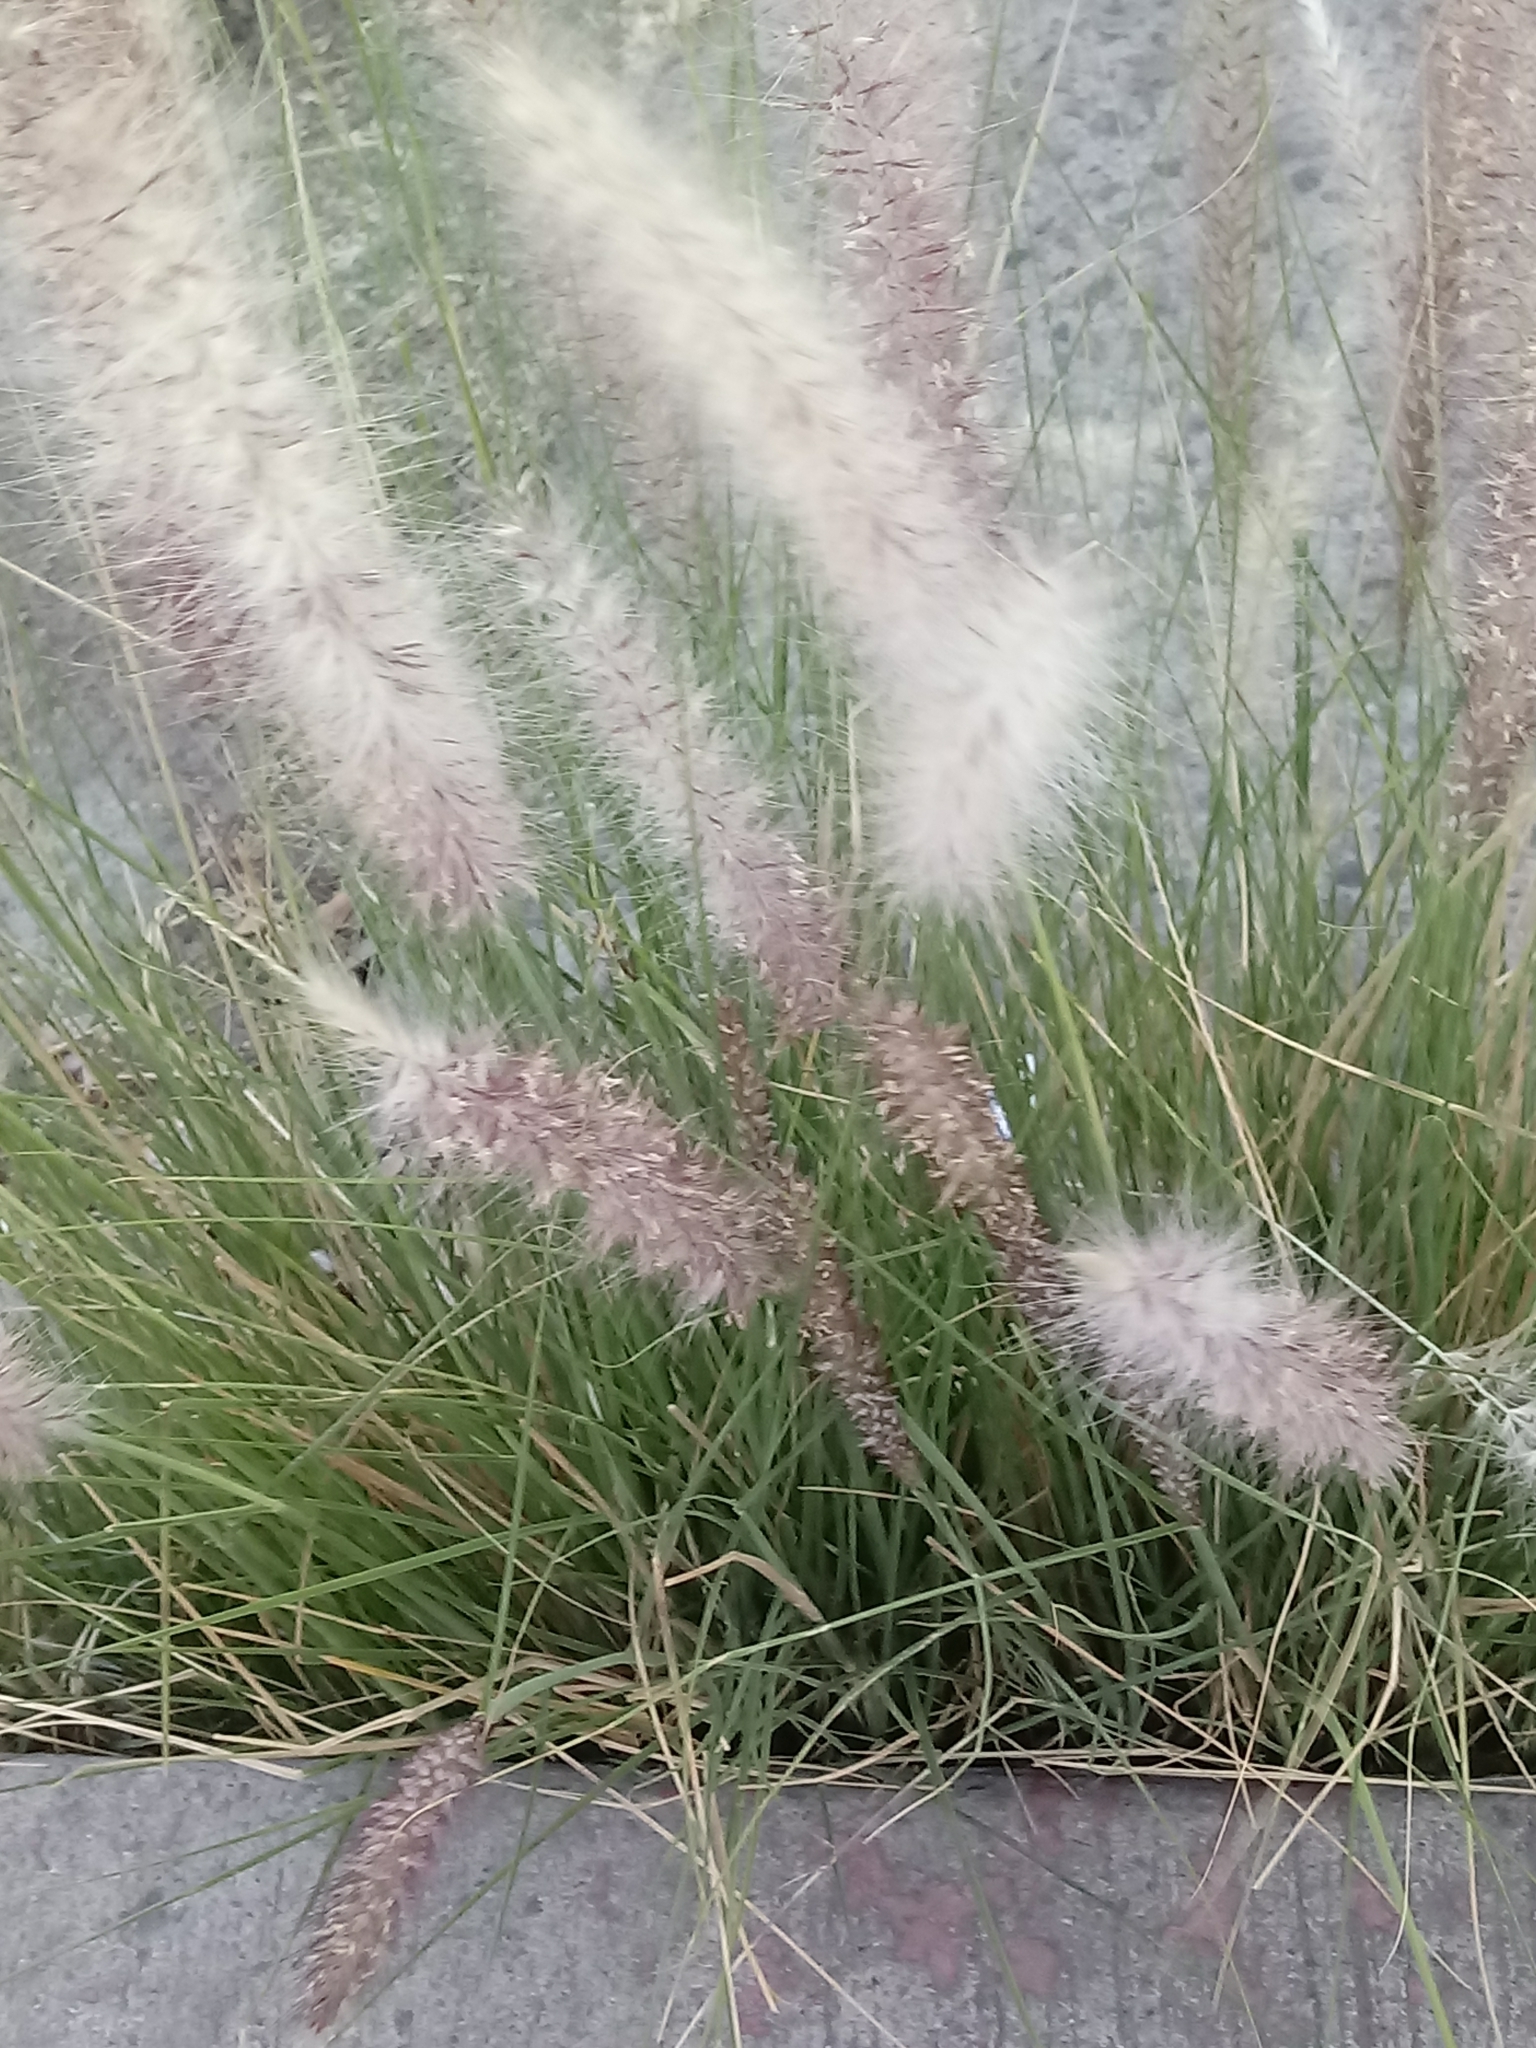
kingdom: Plantae
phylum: Tracheophyta
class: Liliopsida
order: Poales
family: Poaceae
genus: Cenchrus
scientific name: Cenchrus setaceus
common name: Crimson fountaingrass
